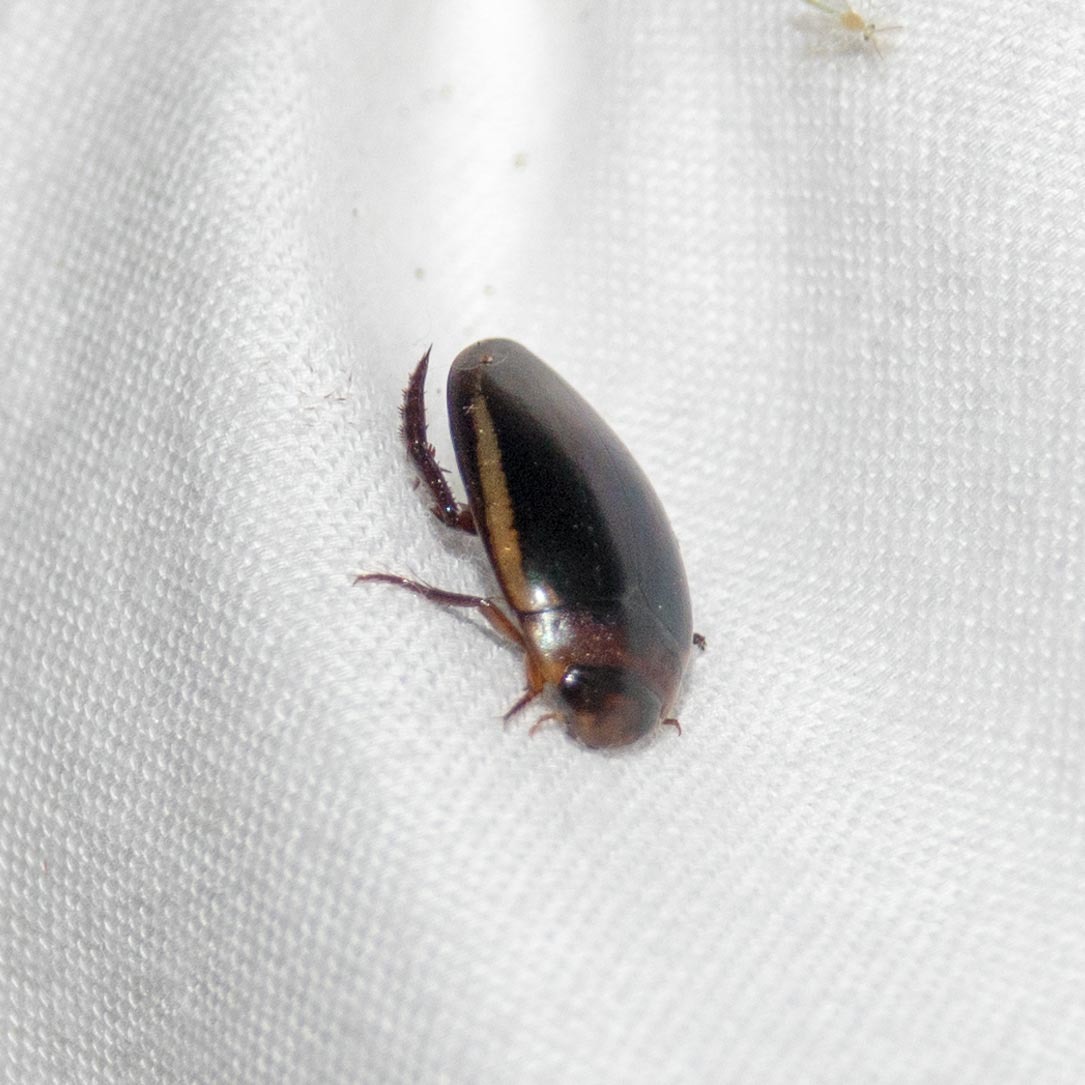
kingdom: Animalia
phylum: Arthropoda
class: Insecta
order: Coleoptera
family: Dytiscidae
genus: Hydaticus
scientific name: Hydaticus bimarginatus
